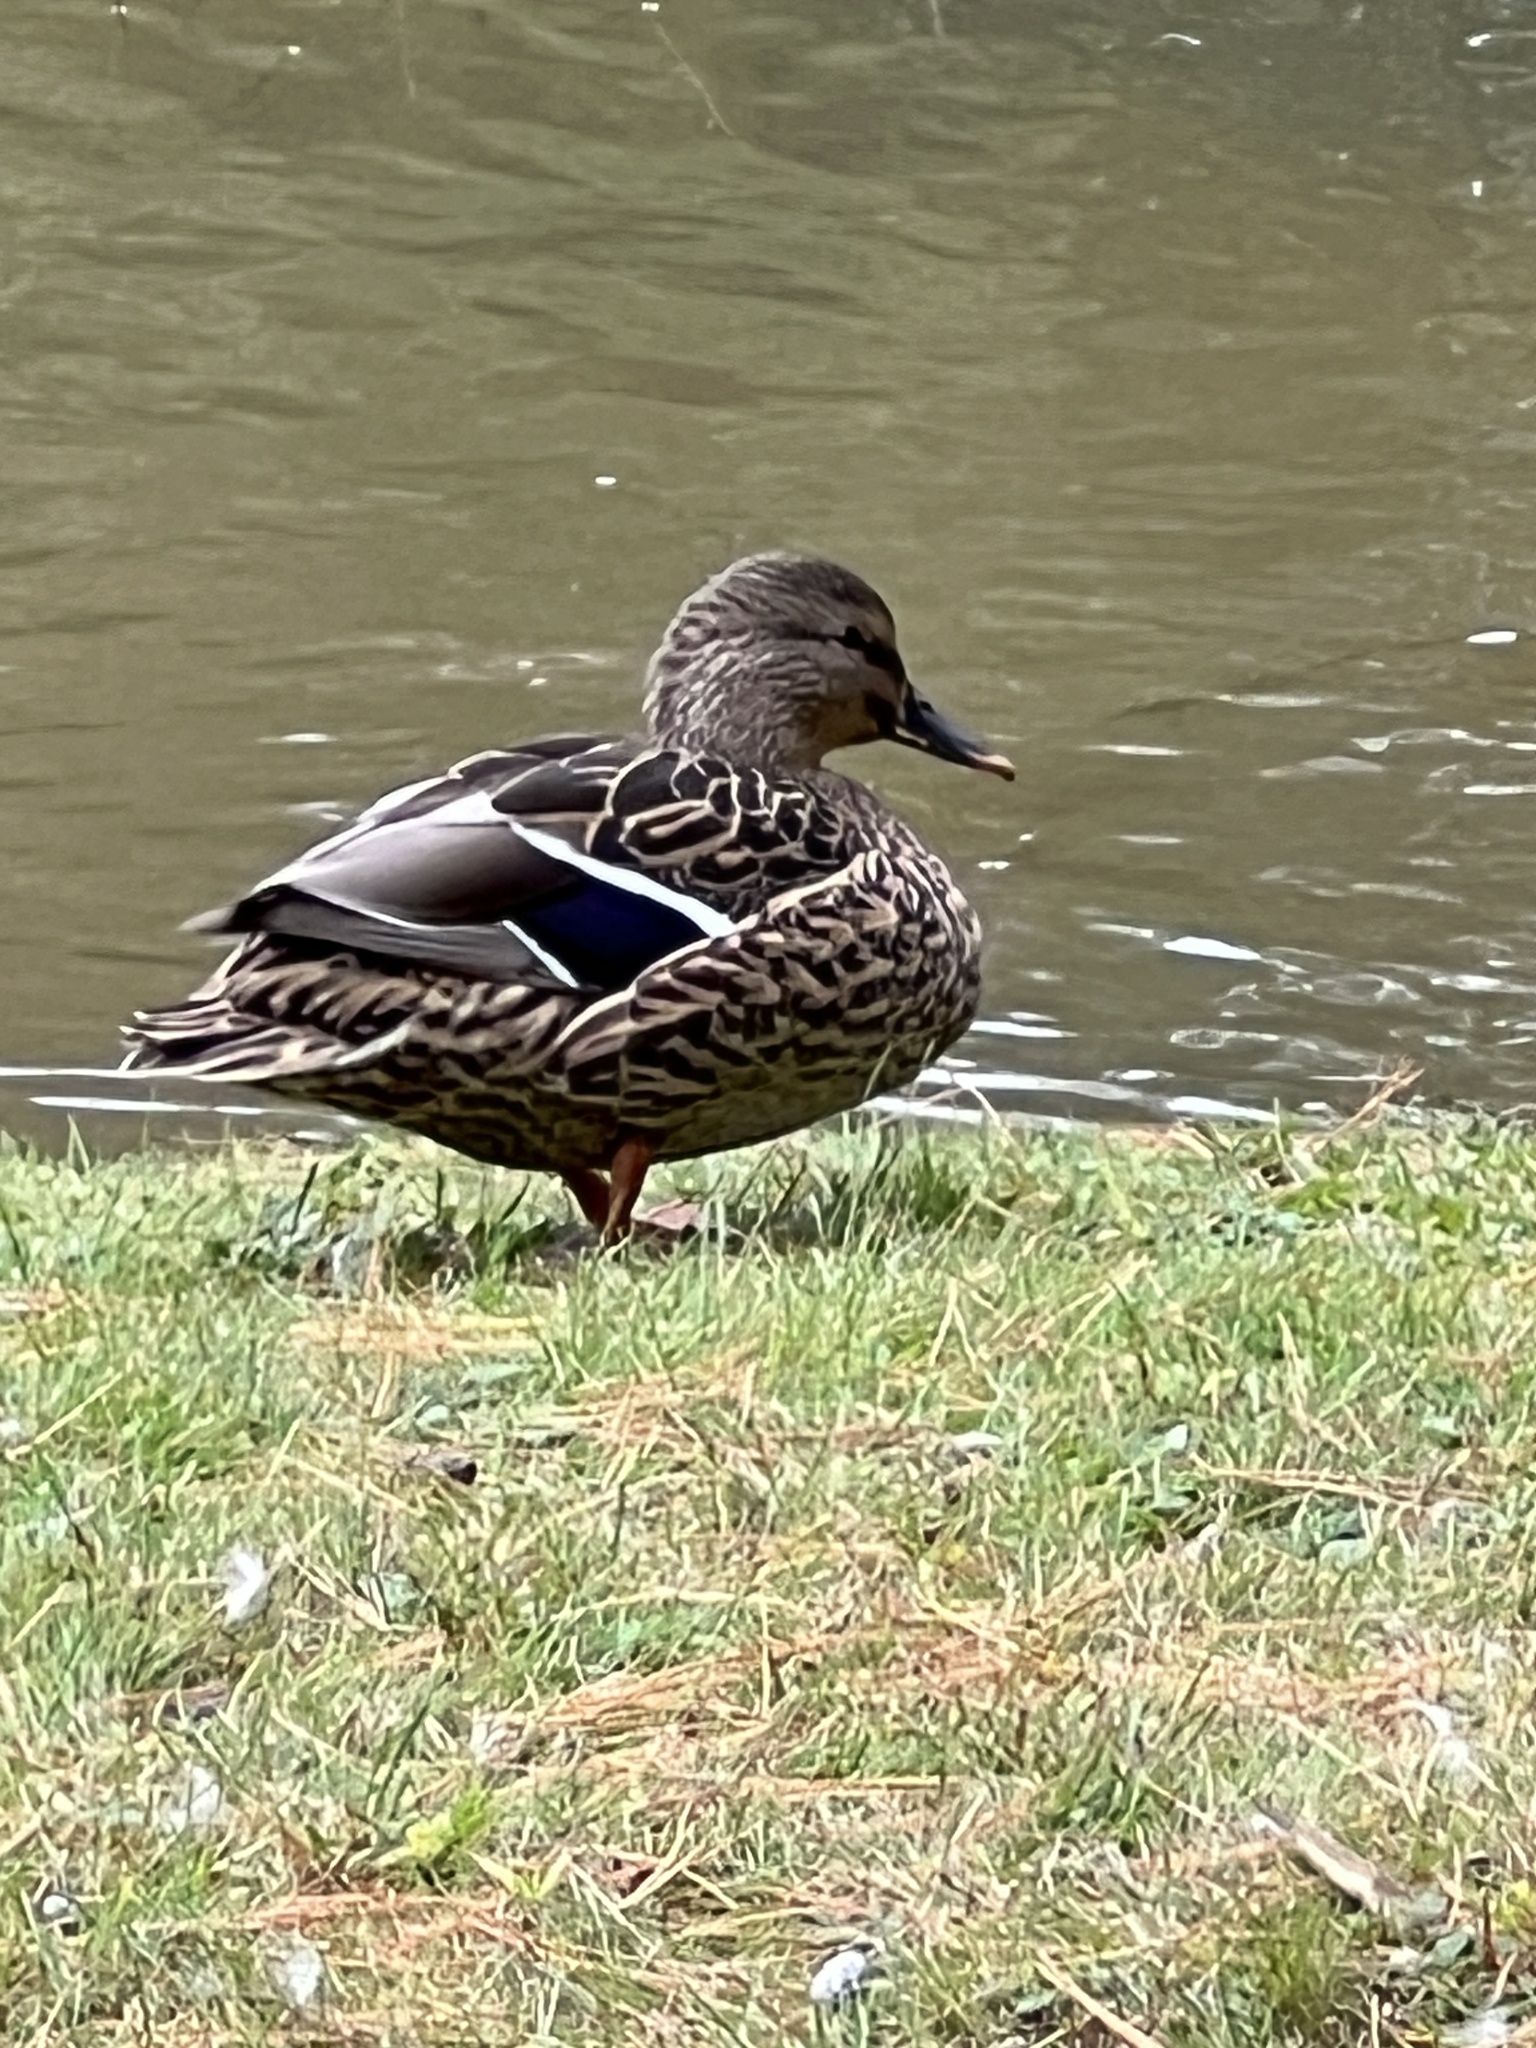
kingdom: Animalia
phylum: Chordata
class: Aves
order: Anseriformes
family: Anatidae
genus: Anas
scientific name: Anas platyrhynchos
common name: Mallard
